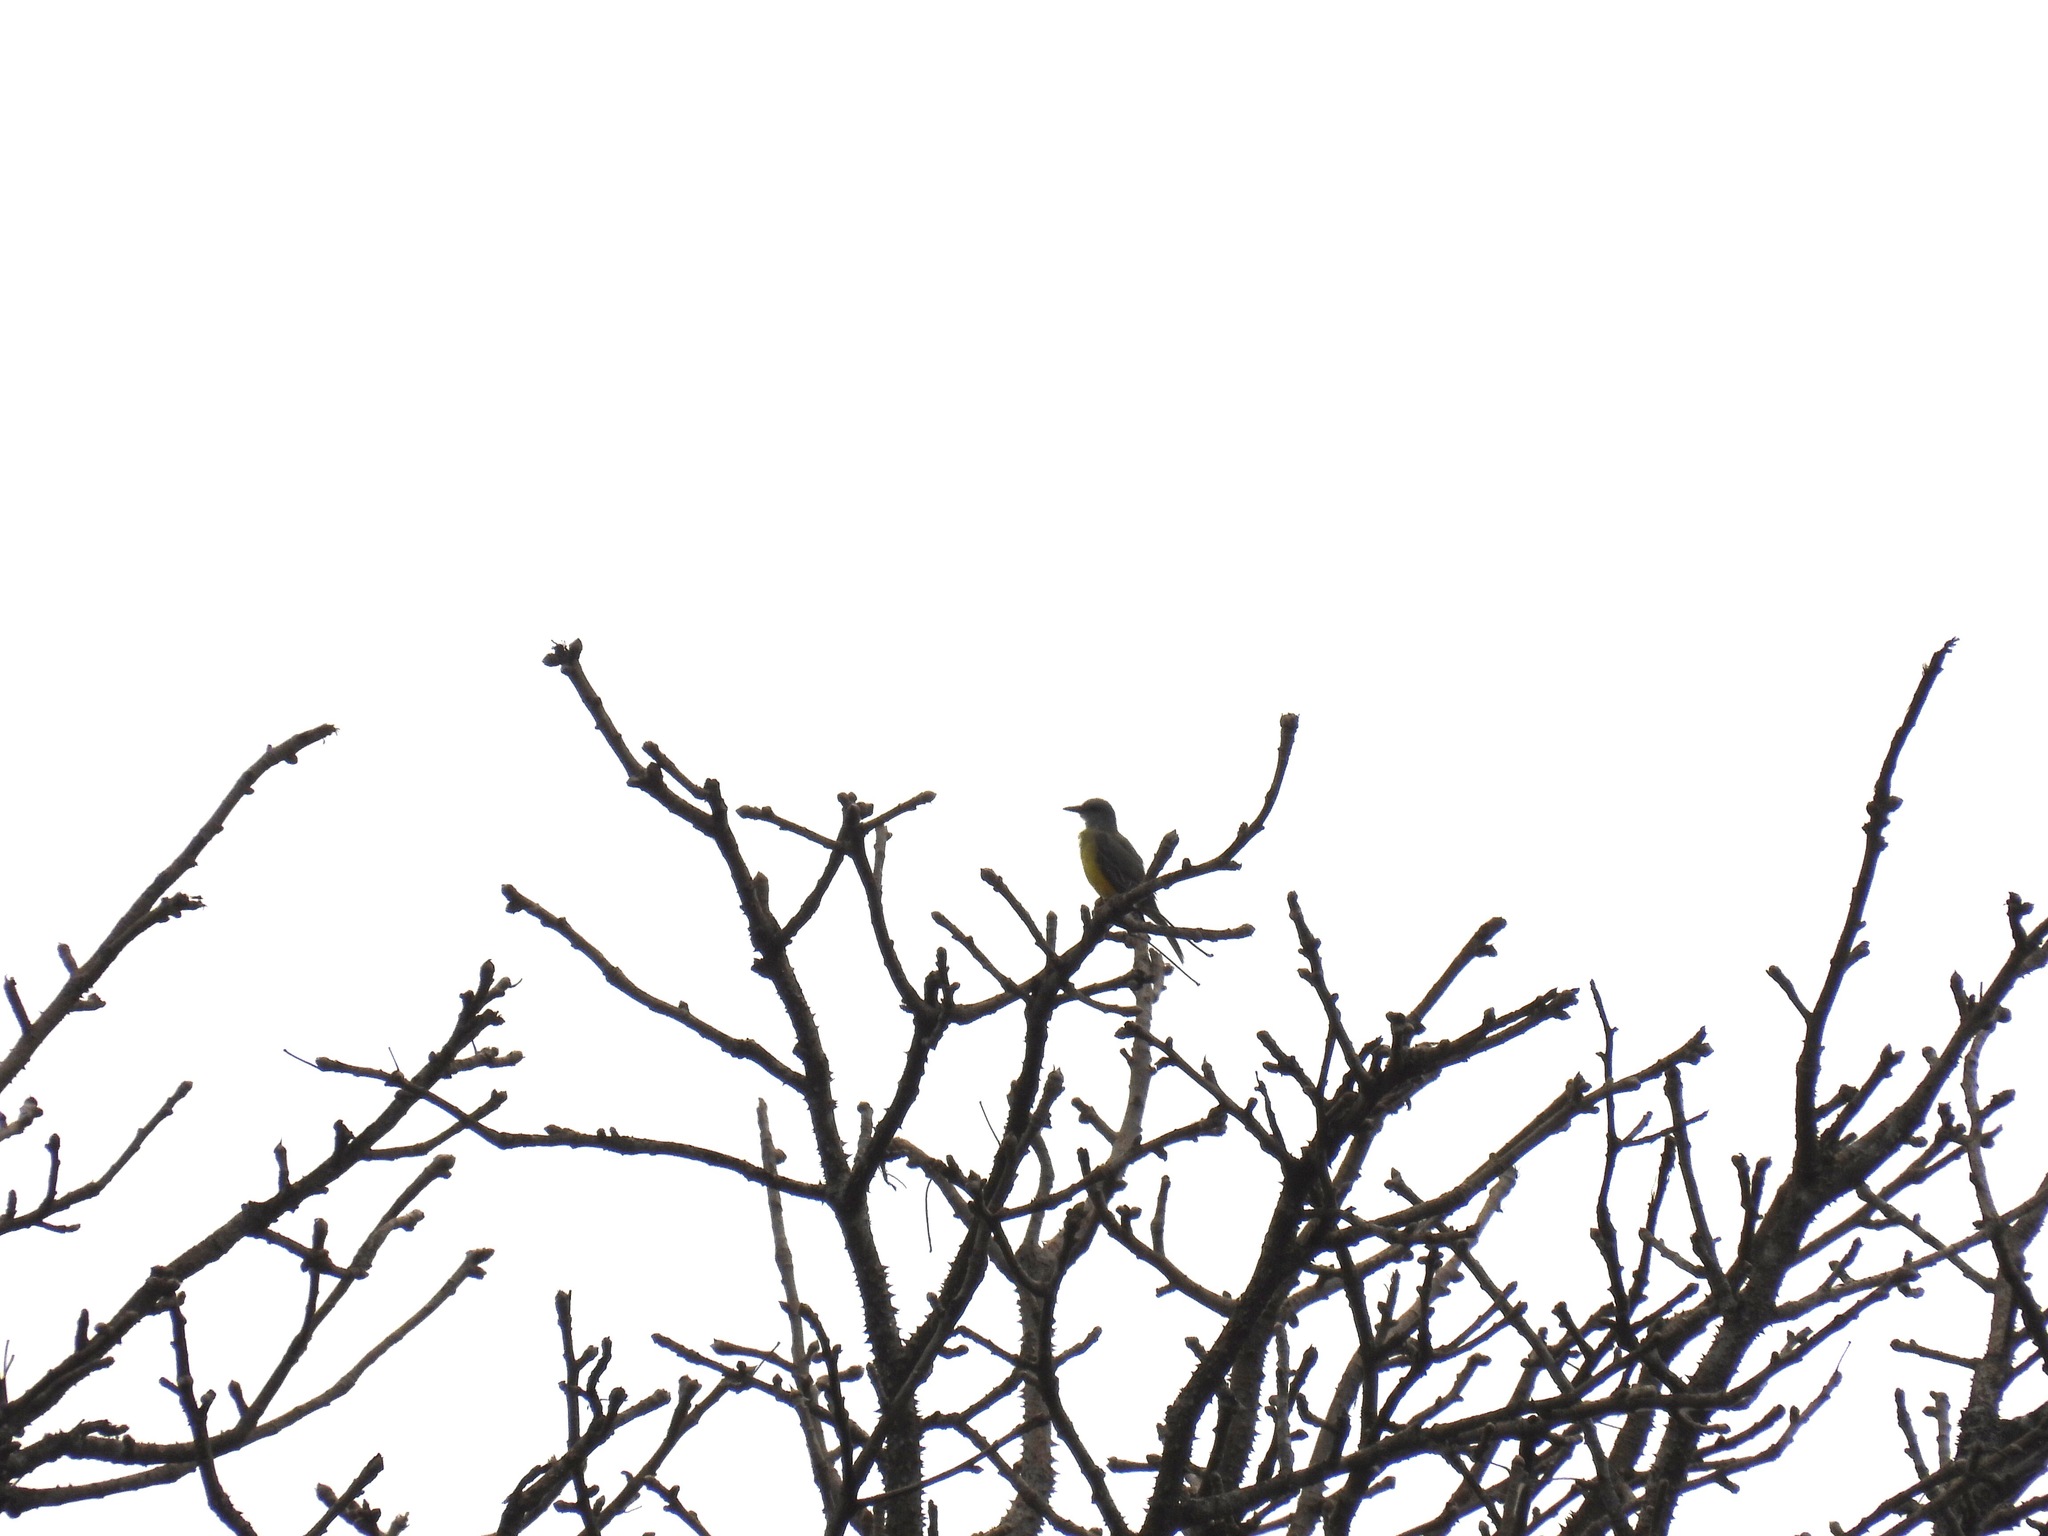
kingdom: Animalia
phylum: Chordata
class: Aves
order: Passeriformes
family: Tyrannidae
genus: Tyrannus
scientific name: Tyrannus melancholicus
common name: Tropical kingbird
